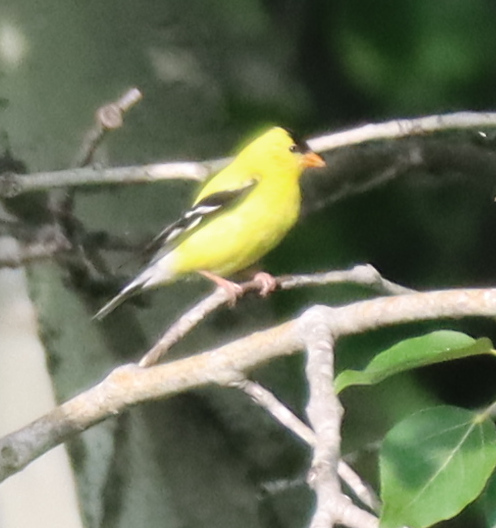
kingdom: Animalia
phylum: Chordata
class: Aves
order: Passeriformes
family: Fringillidae
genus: Spinus
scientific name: Spinus tristis
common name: American goldfinch
